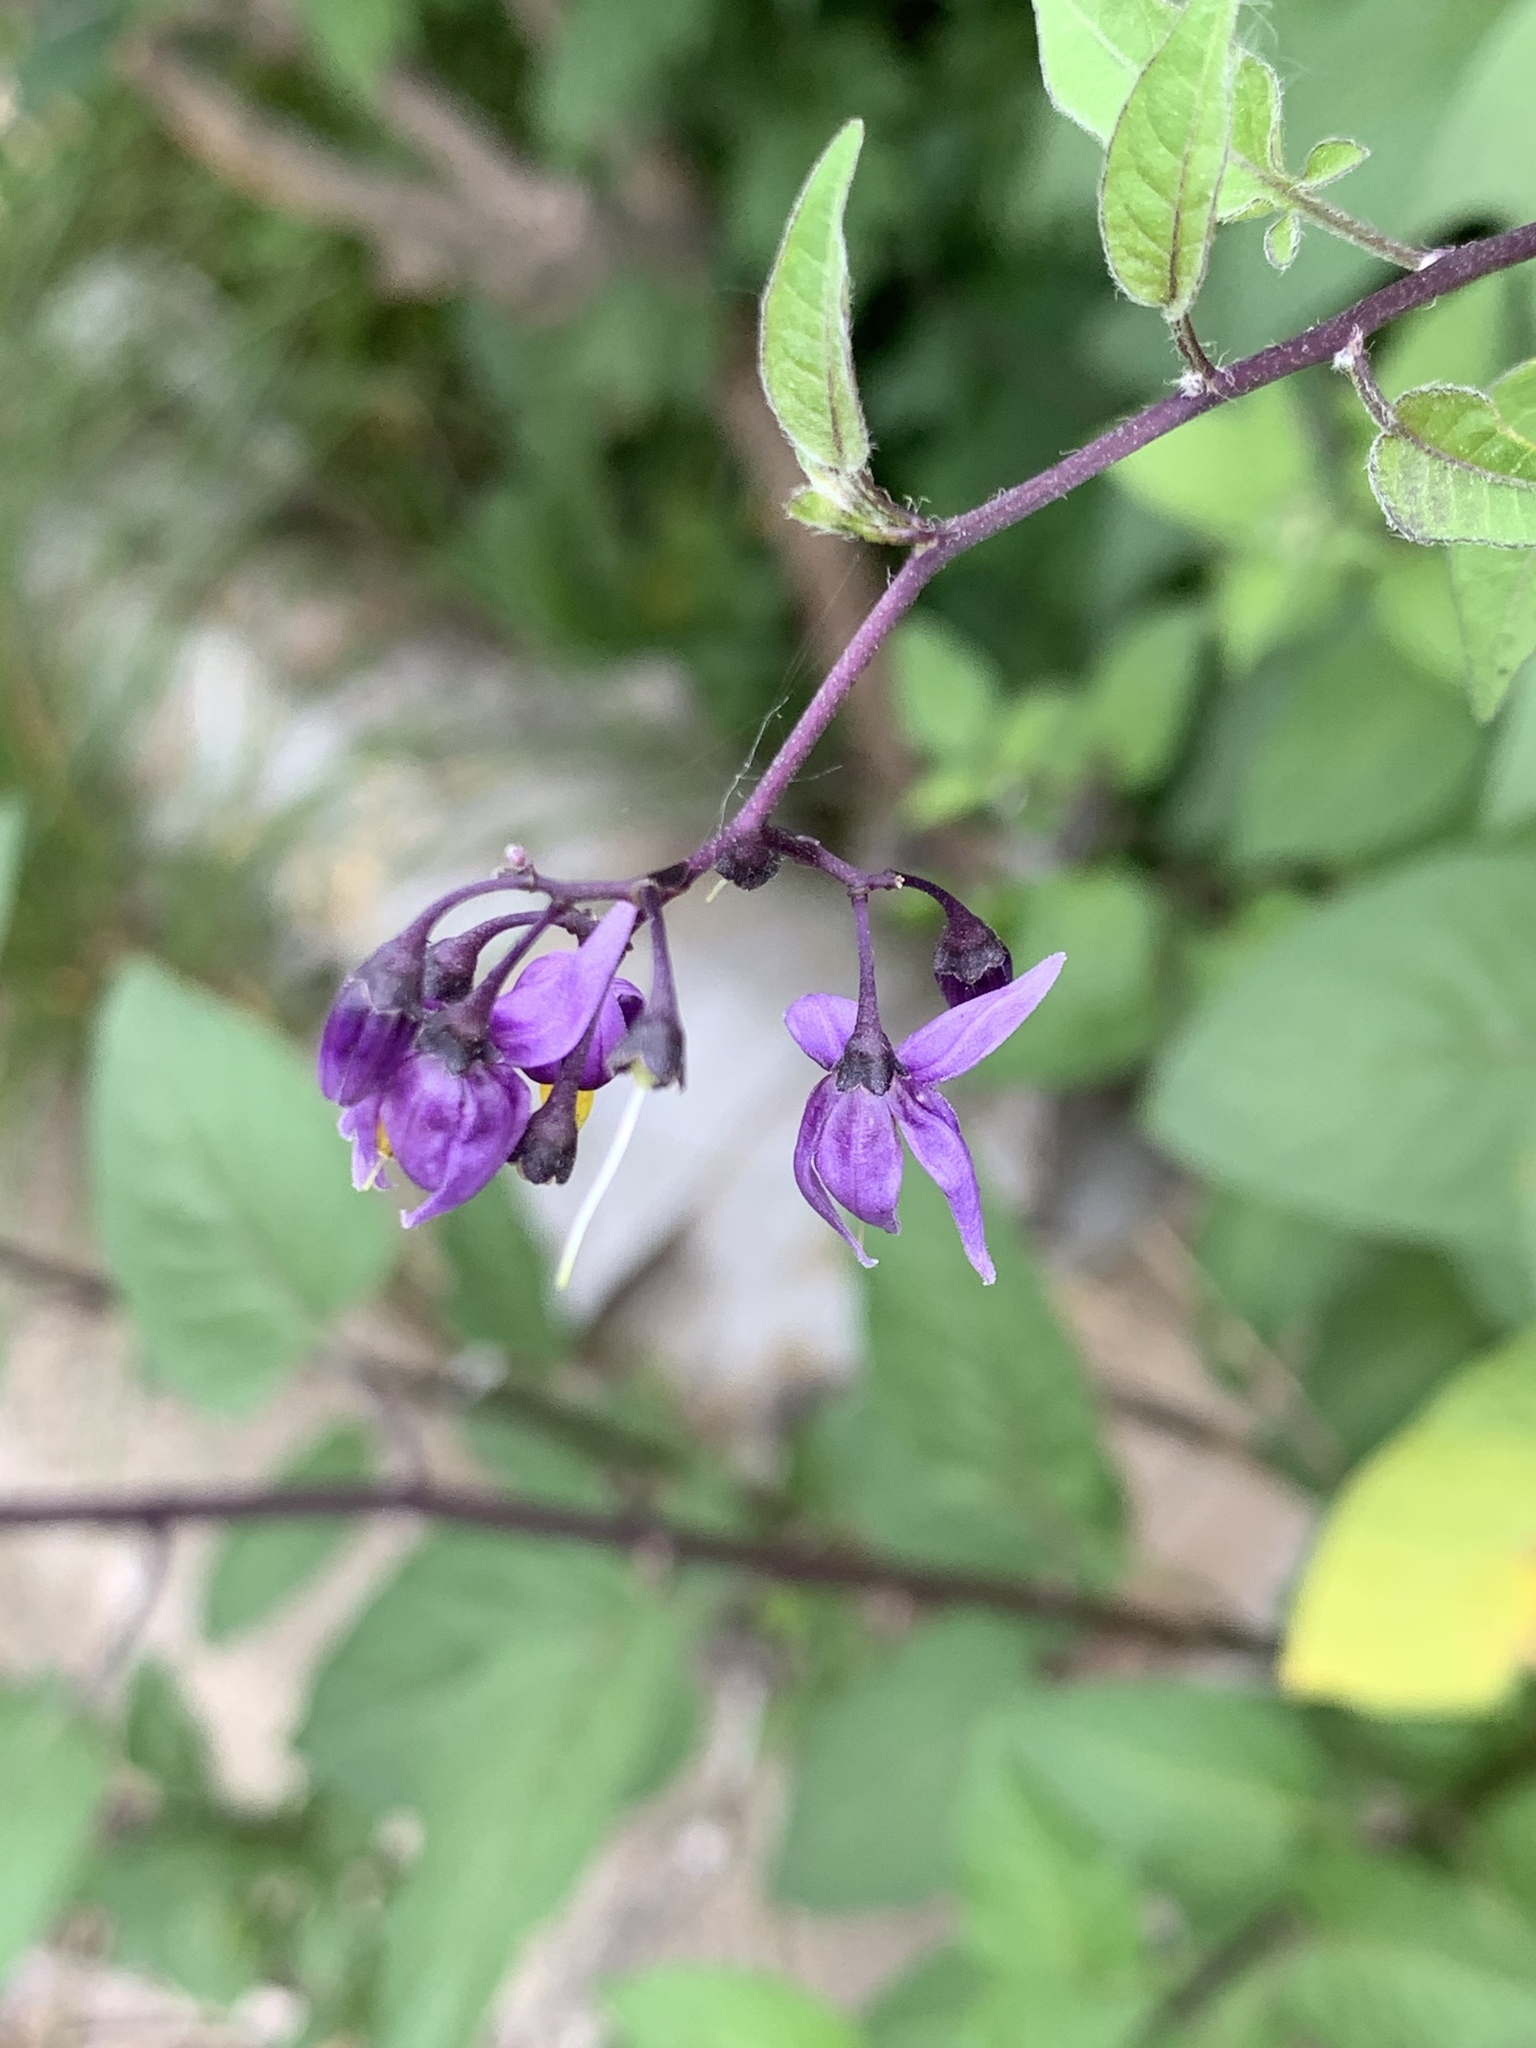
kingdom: Plantae
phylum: Tracheophyta
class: Magnoliopsida
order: Solanales
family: Solanaceae
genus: Solanum
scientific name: Solanum dulcamara
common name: Climbing nightshade
